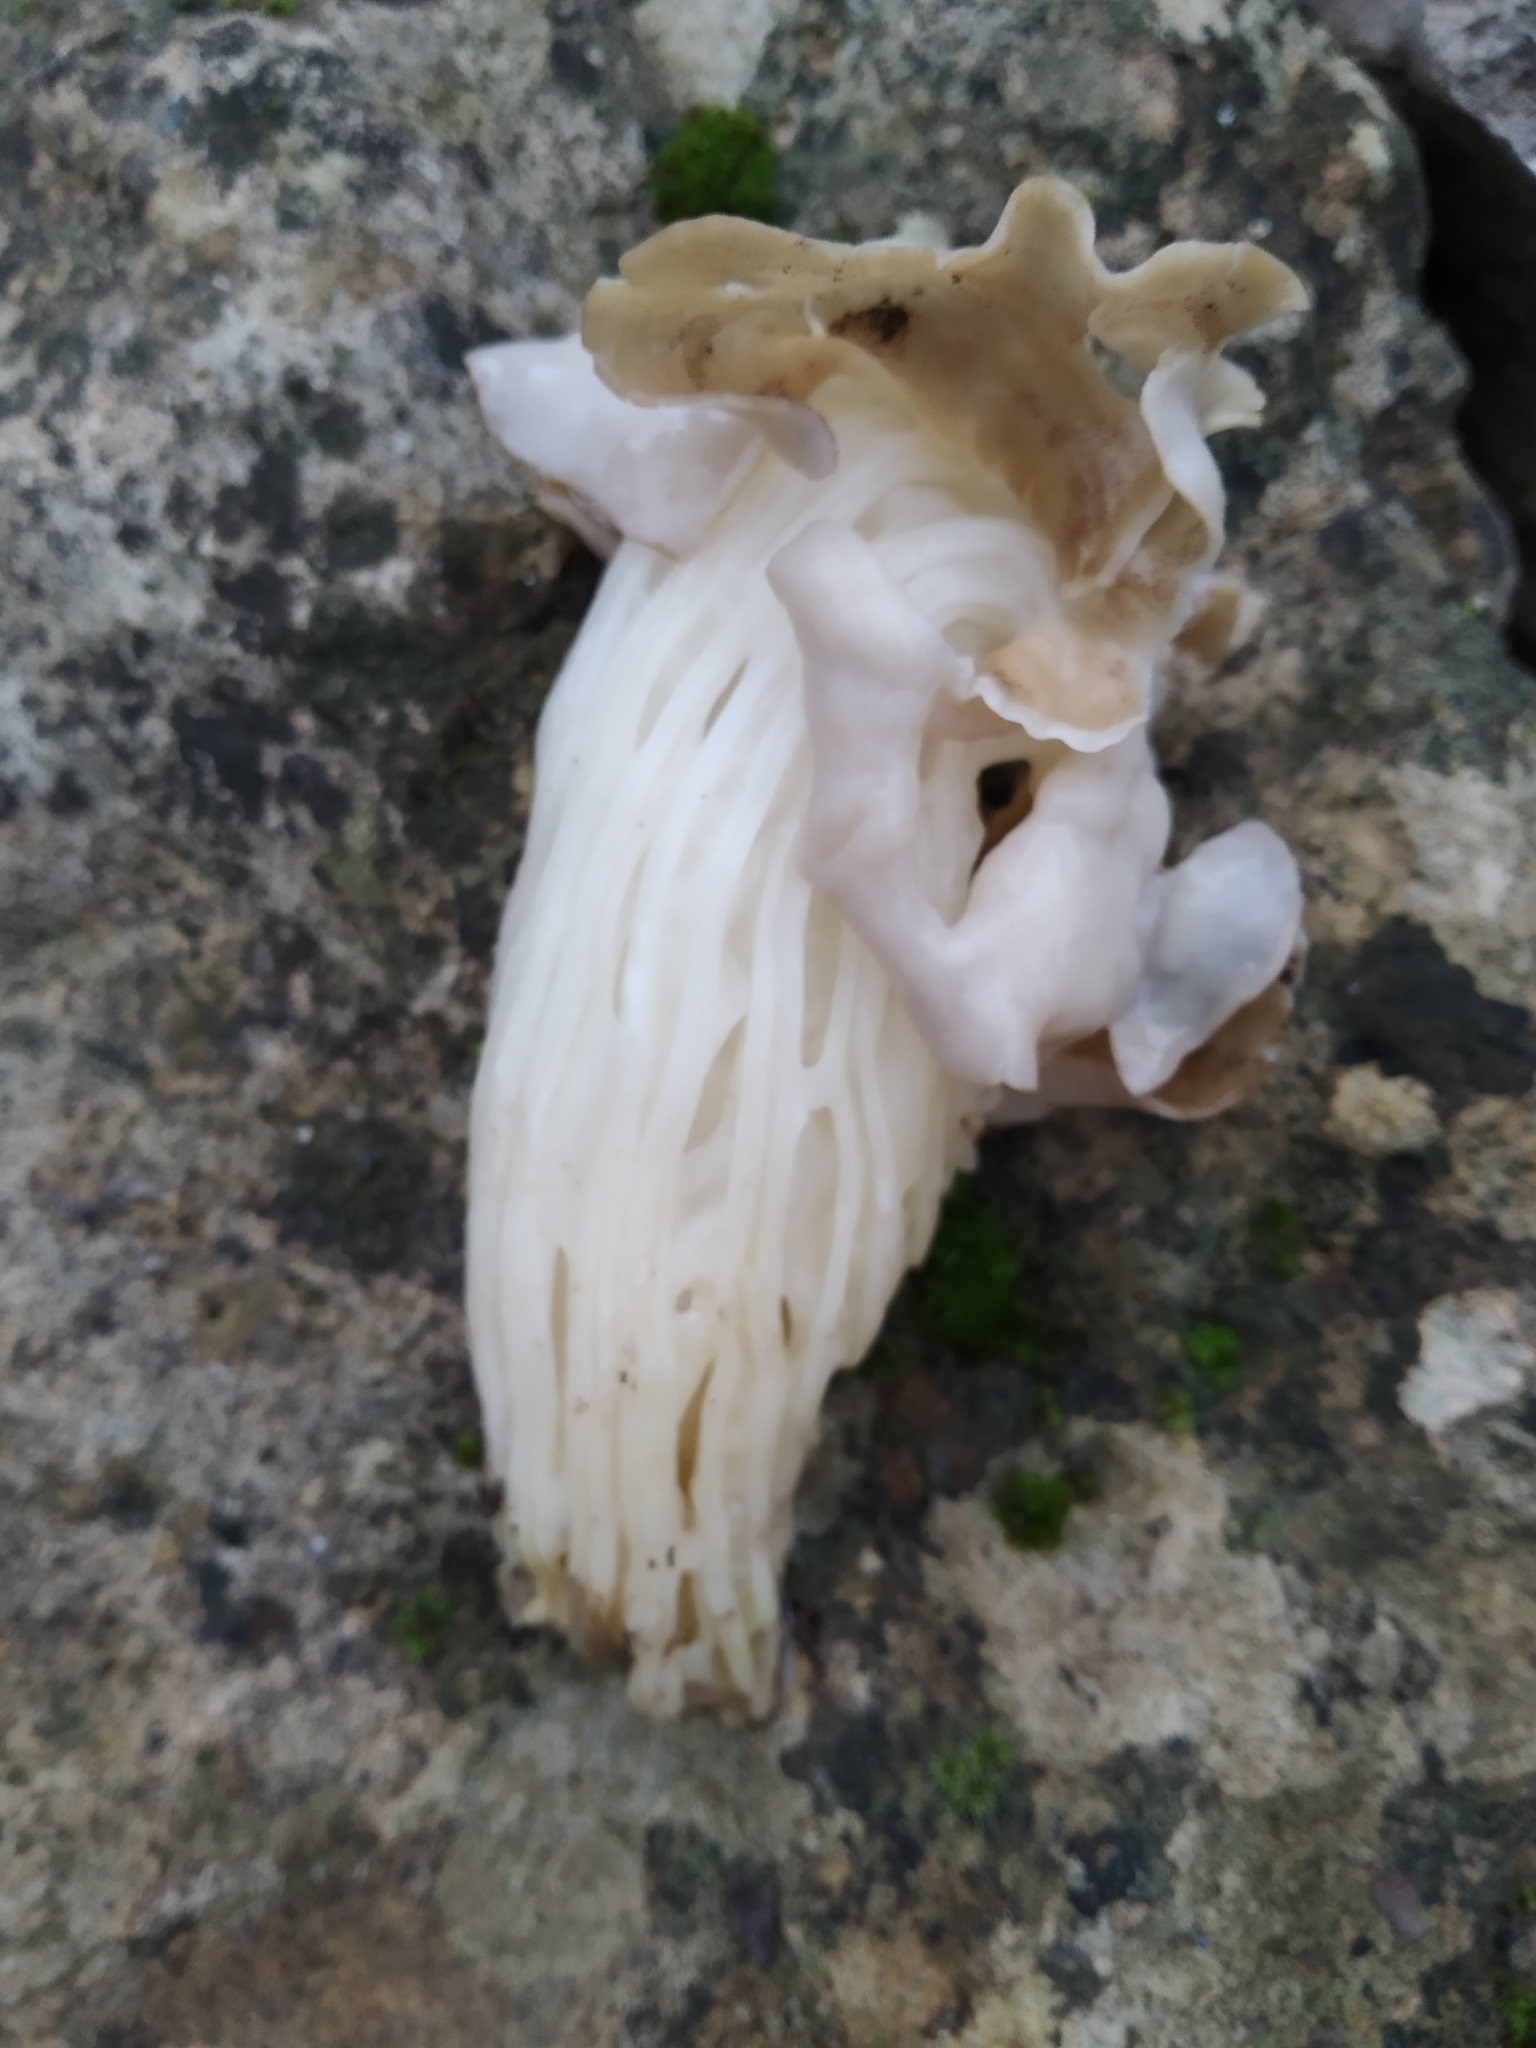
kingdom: Fungi
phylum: Ascomycota
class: Pezizomycetes
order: Pezizales
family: Helvellaceae
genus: Helvella
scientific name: Helvella crispa
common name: White saddle
